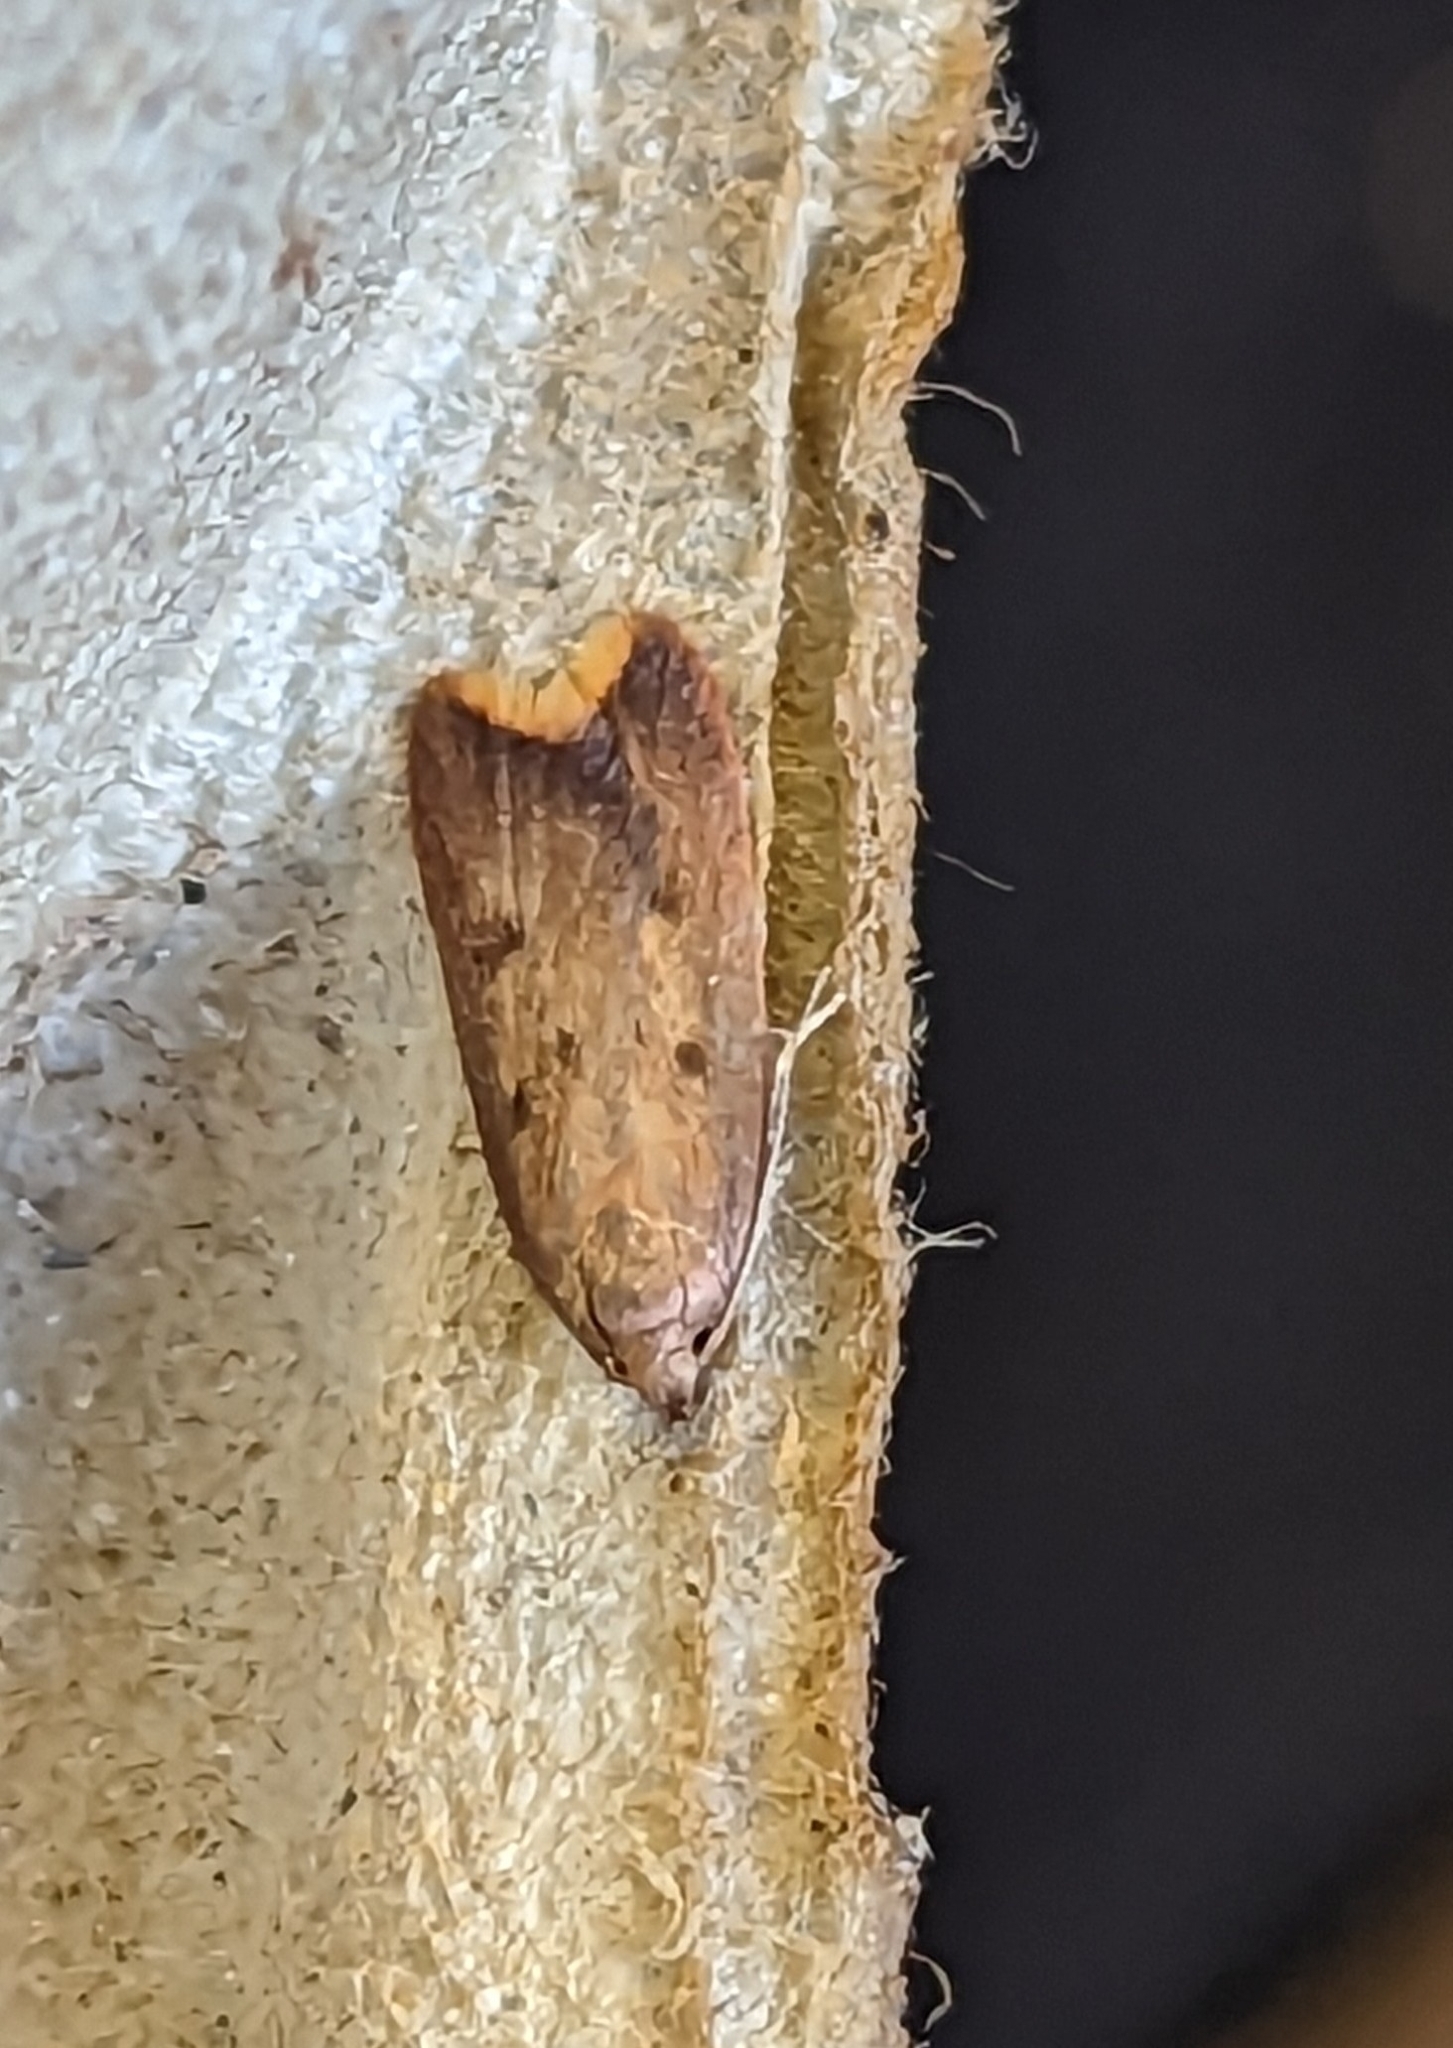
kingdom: Animalia
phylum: Arthropoda
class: Insecta
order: Lepidoptera
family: Oecophoridae
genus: Tachystola
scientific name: Tachystola acroxantha
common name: Ruddy streak
